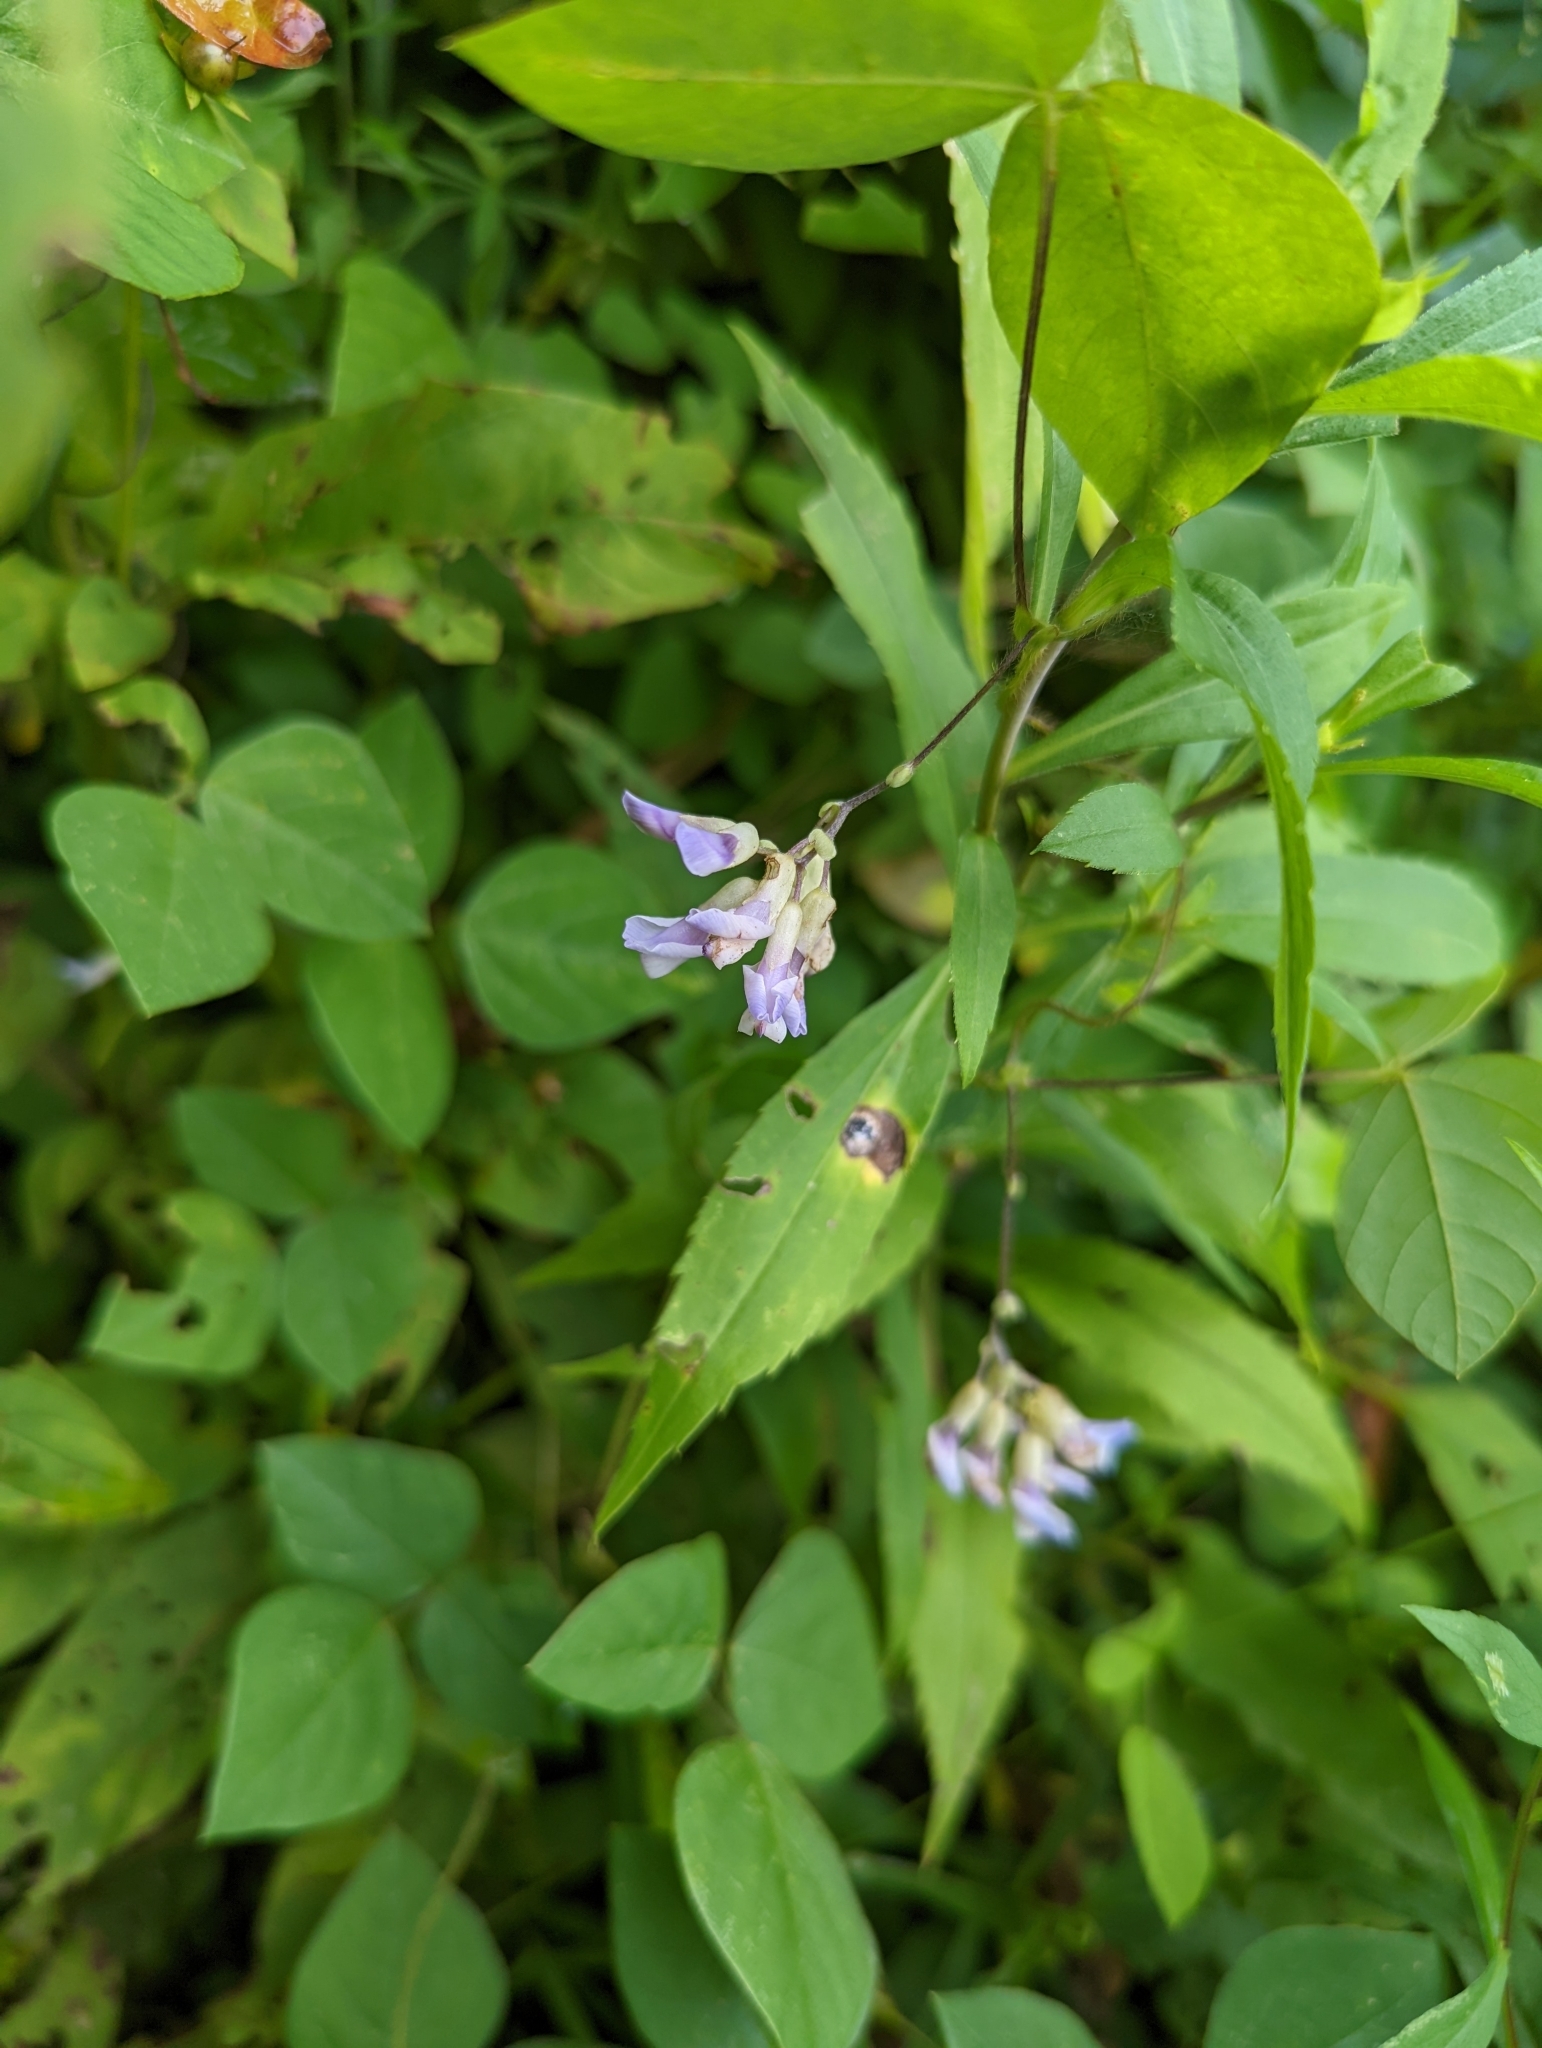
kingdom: Plantae
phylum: Tracheophyta
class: Magnoliopsida
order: Fabales
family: Fabaceae
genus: Amphicarpaea
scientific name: Amphicarpaea bracteata
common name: American hog peanut
